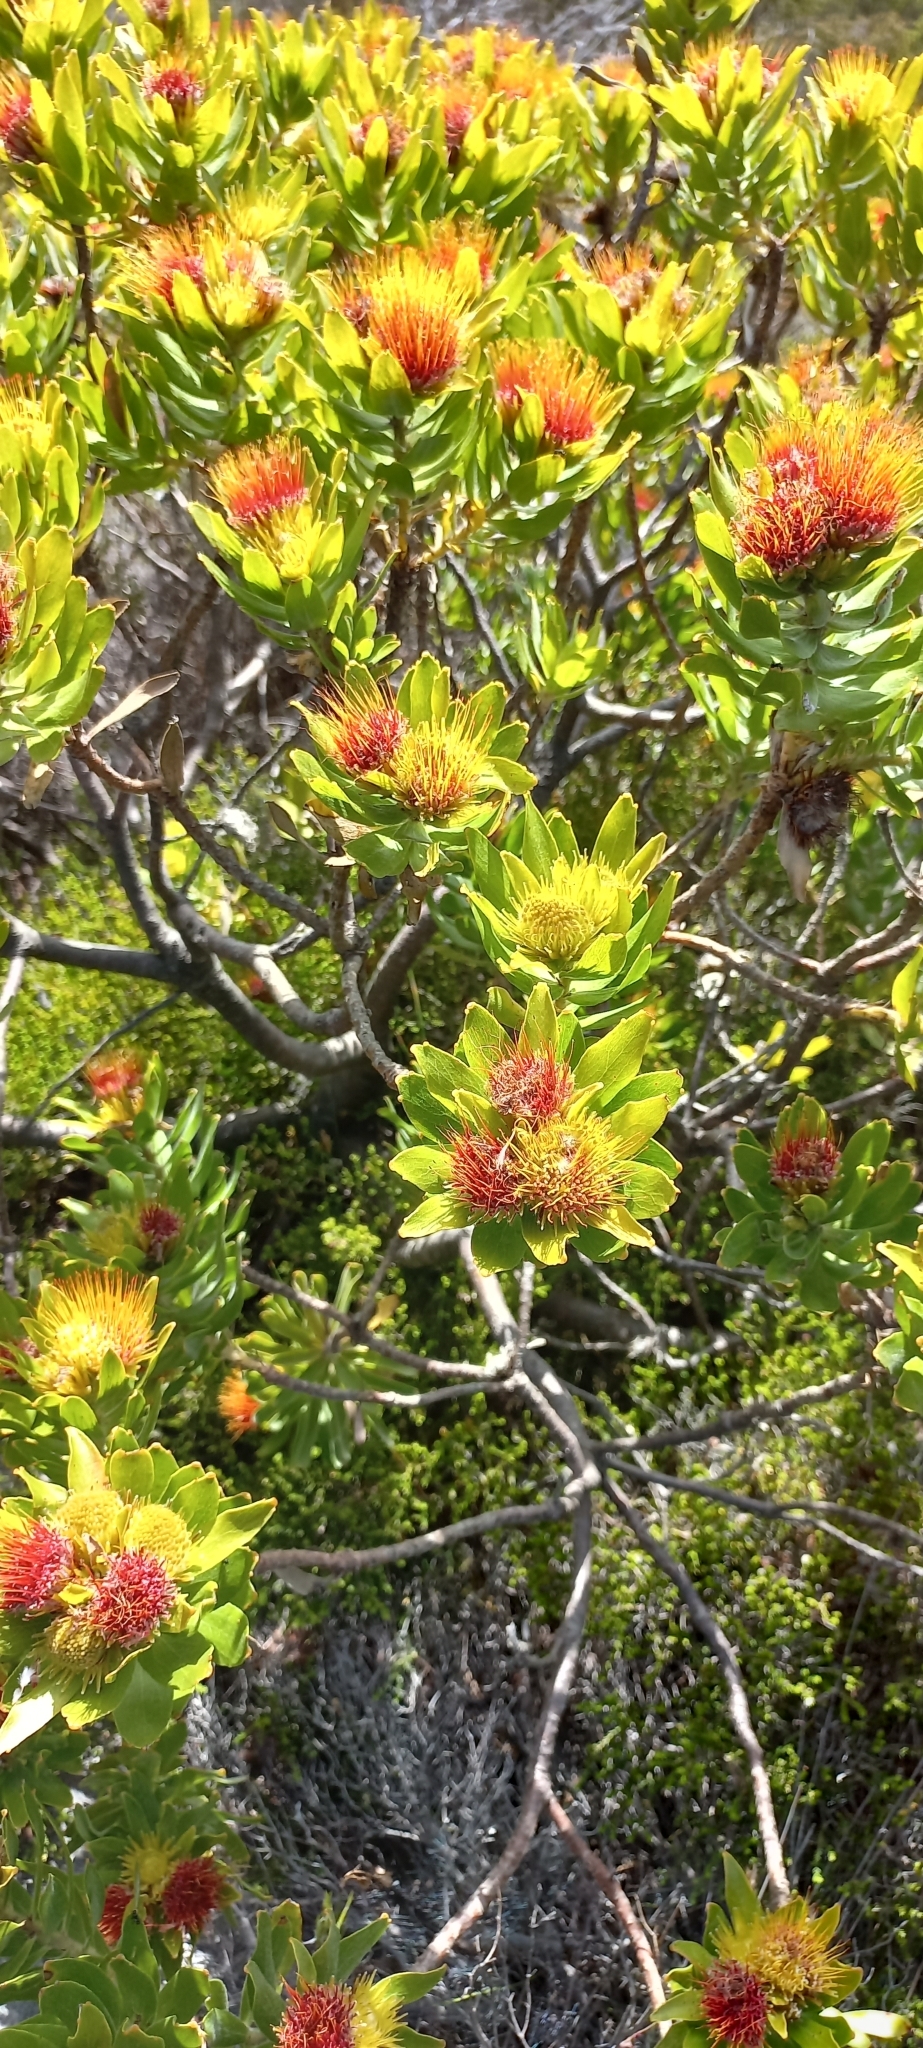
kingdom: Plantae
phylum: Tracheophyta
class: Magnoliopsida
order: Proteales
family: Proteaceae
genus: Leucospermum
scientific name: Leucospermum oleifolium
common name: Matches
